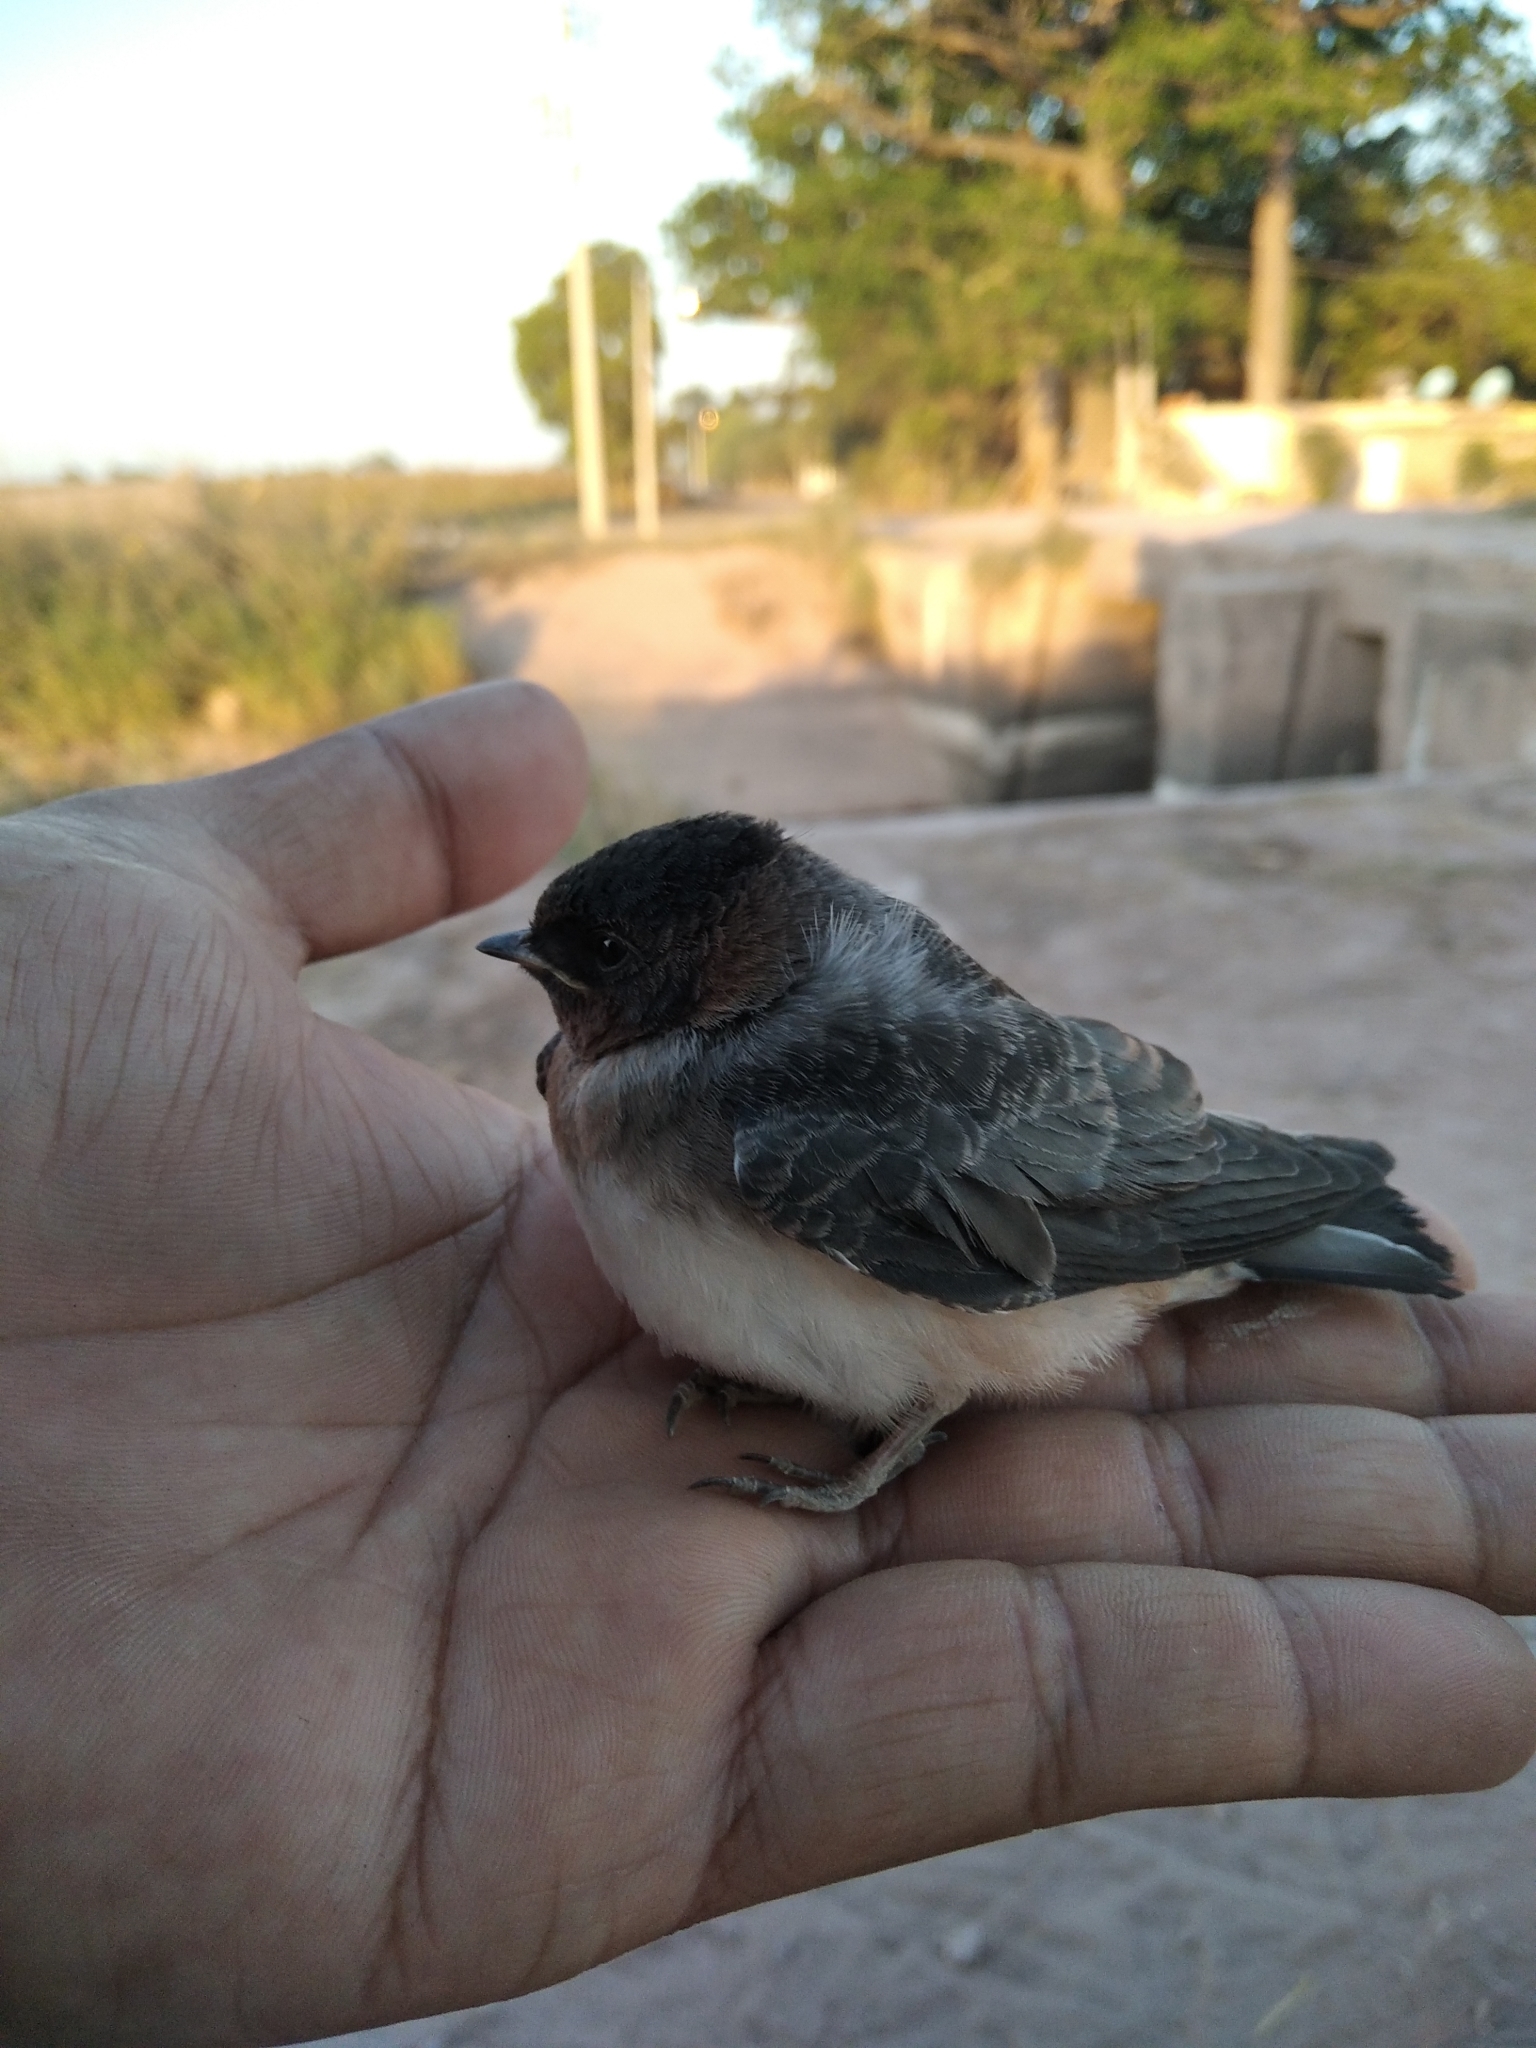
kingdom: Animalia
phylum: Chordata
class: Aves
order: Passeriformes
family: Hirundinidae
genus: Petrochelidon
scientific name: Petrochelidon pyrrhonota
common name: American cliff swallow
